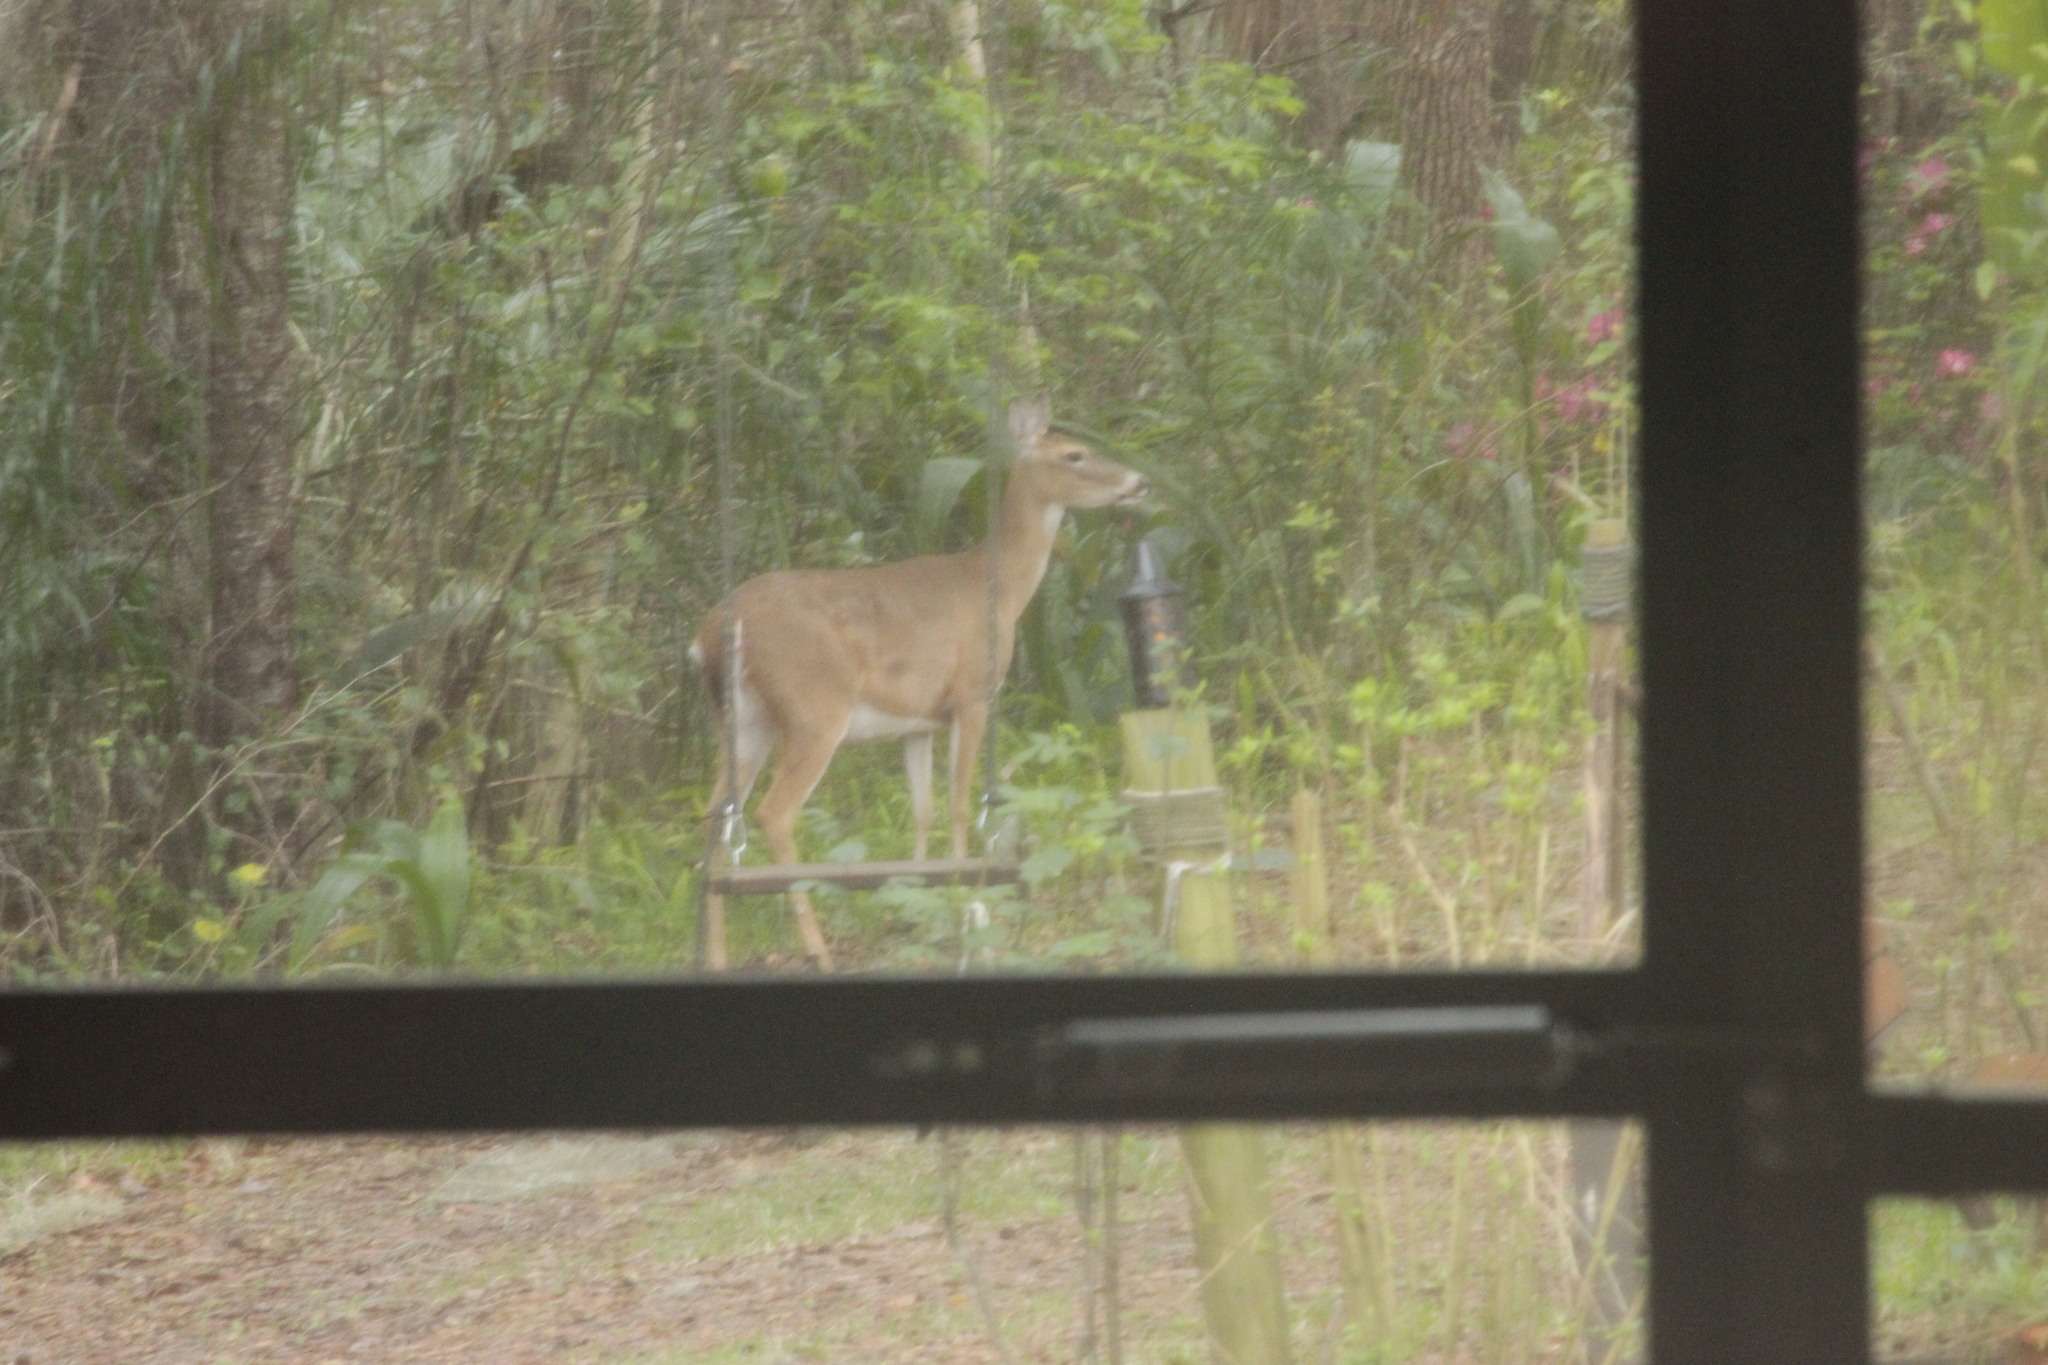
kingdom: Animalia
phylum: Chordata
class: Mammalia
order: Artiodactyla
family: Cervidae
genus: Odocoileus
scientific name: Odocoileus virginianus
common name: White-tailed deer
